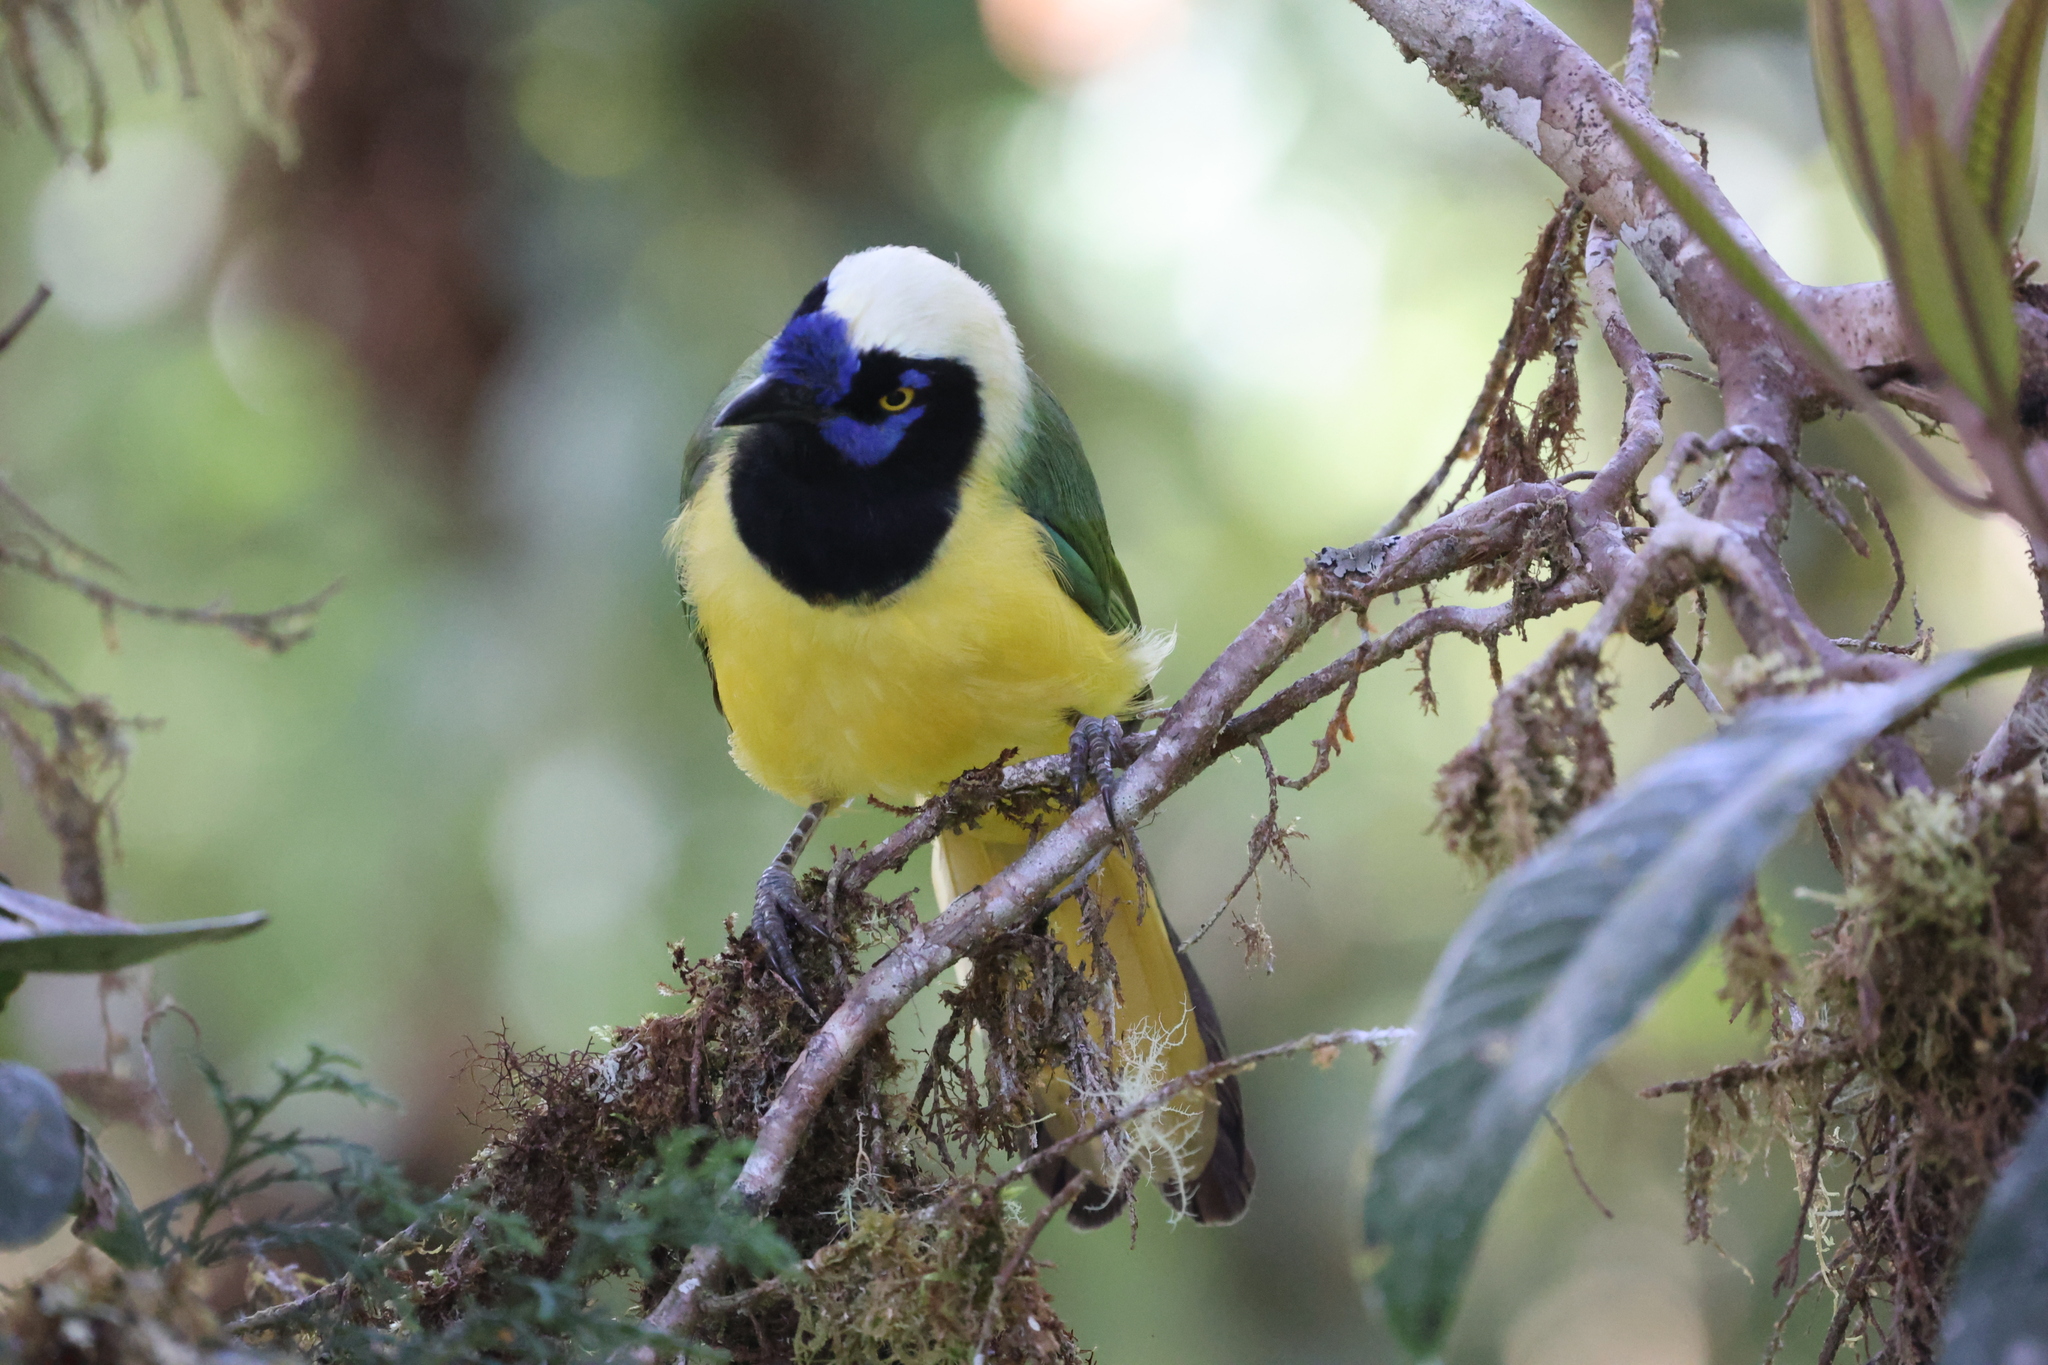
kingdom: Animalia
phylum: Chordata
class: Aves
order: Passeriformes
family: Corvidae
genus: Cyanocorax
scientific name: Cyanocorax yncas
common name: Green jay
